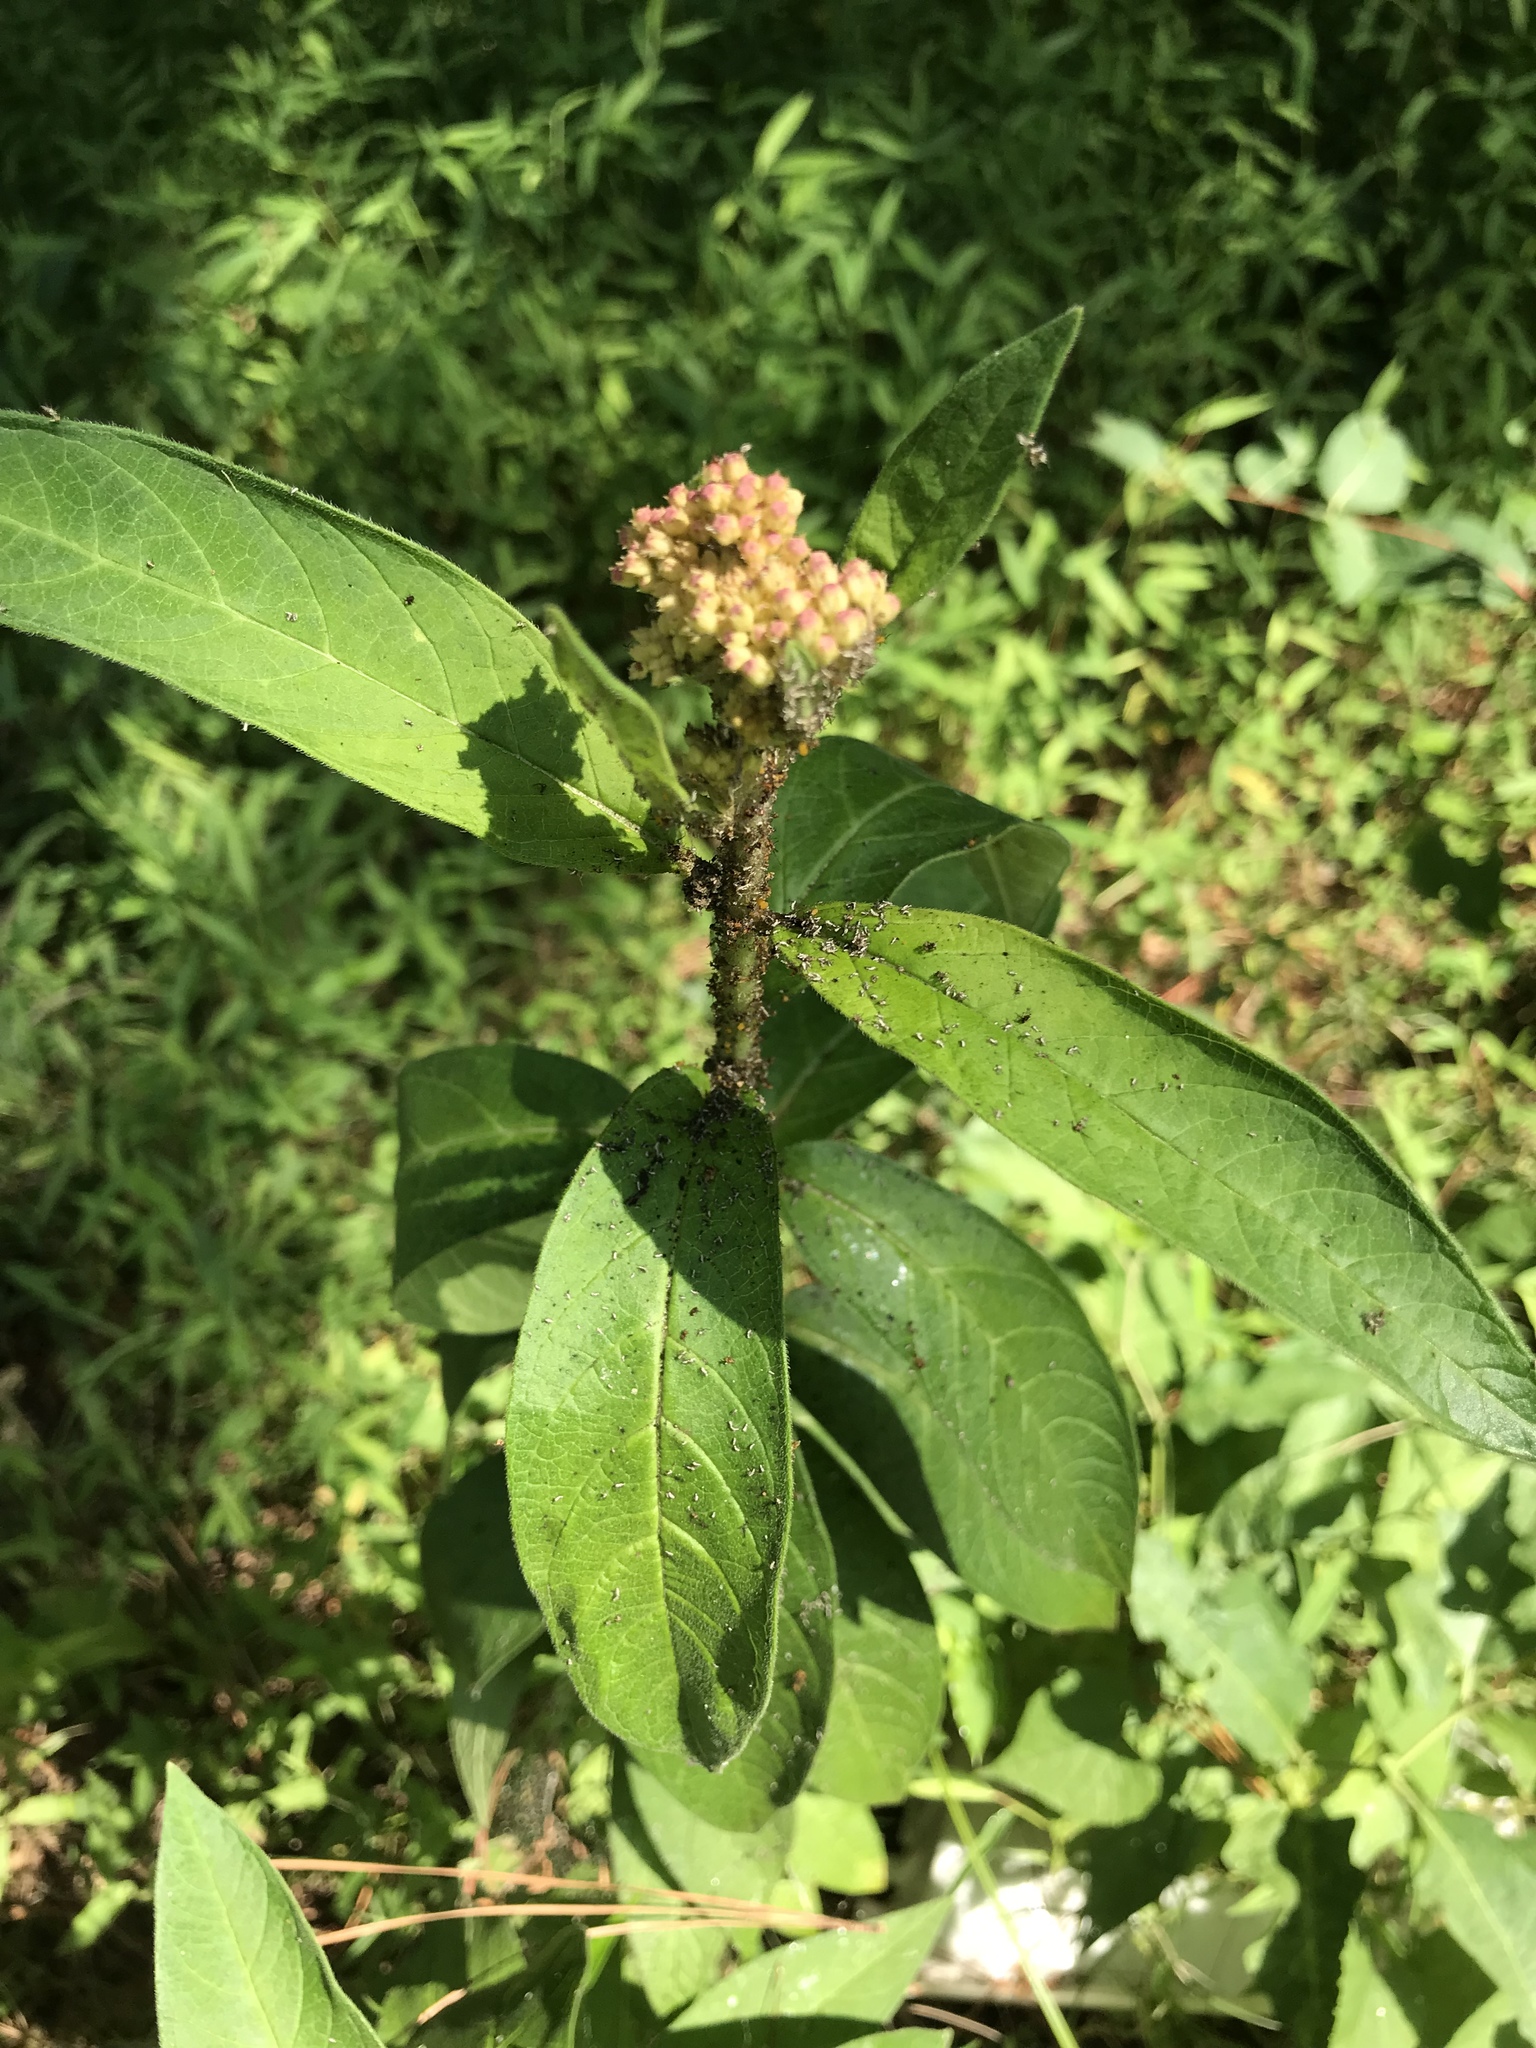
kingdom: Plantae
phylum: Tracheophyta
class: Magnoliopsida
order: Gentianales
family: Apocynaceae
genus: Asclepias
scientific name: Asclepias incarnata
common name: Swamp milkweed
